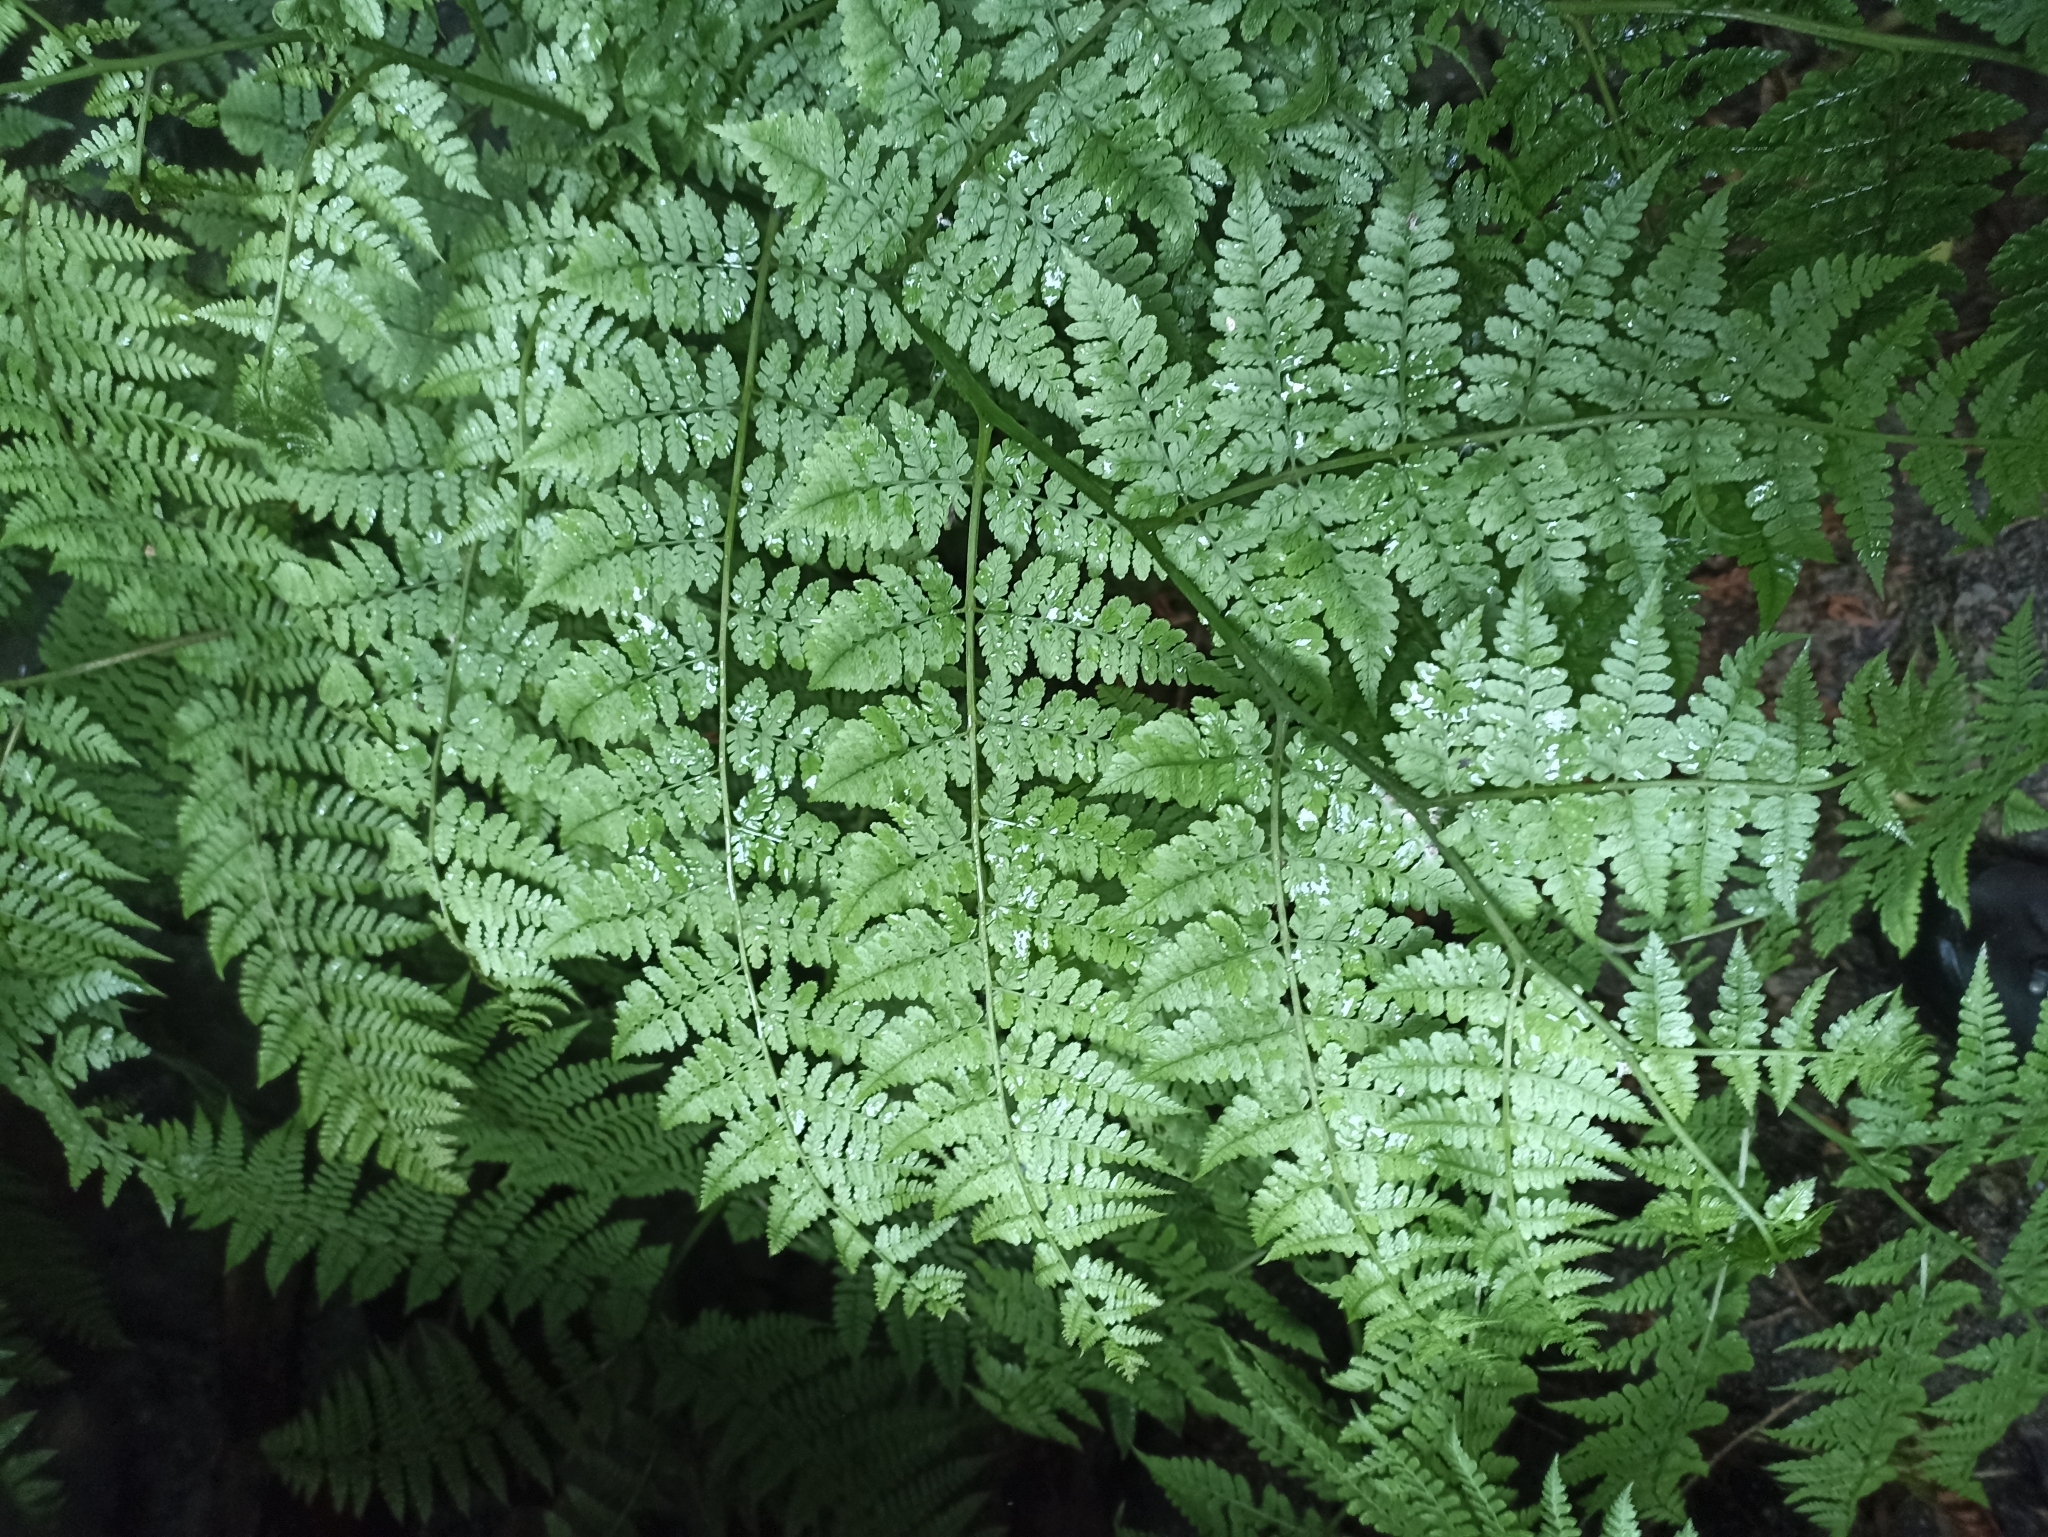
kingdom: Plantae
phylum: Tracheophyta
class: Polypodiopsida
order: Polypodiales
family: Athyriaceae
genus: Diplazium
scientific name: Diplazium australe
